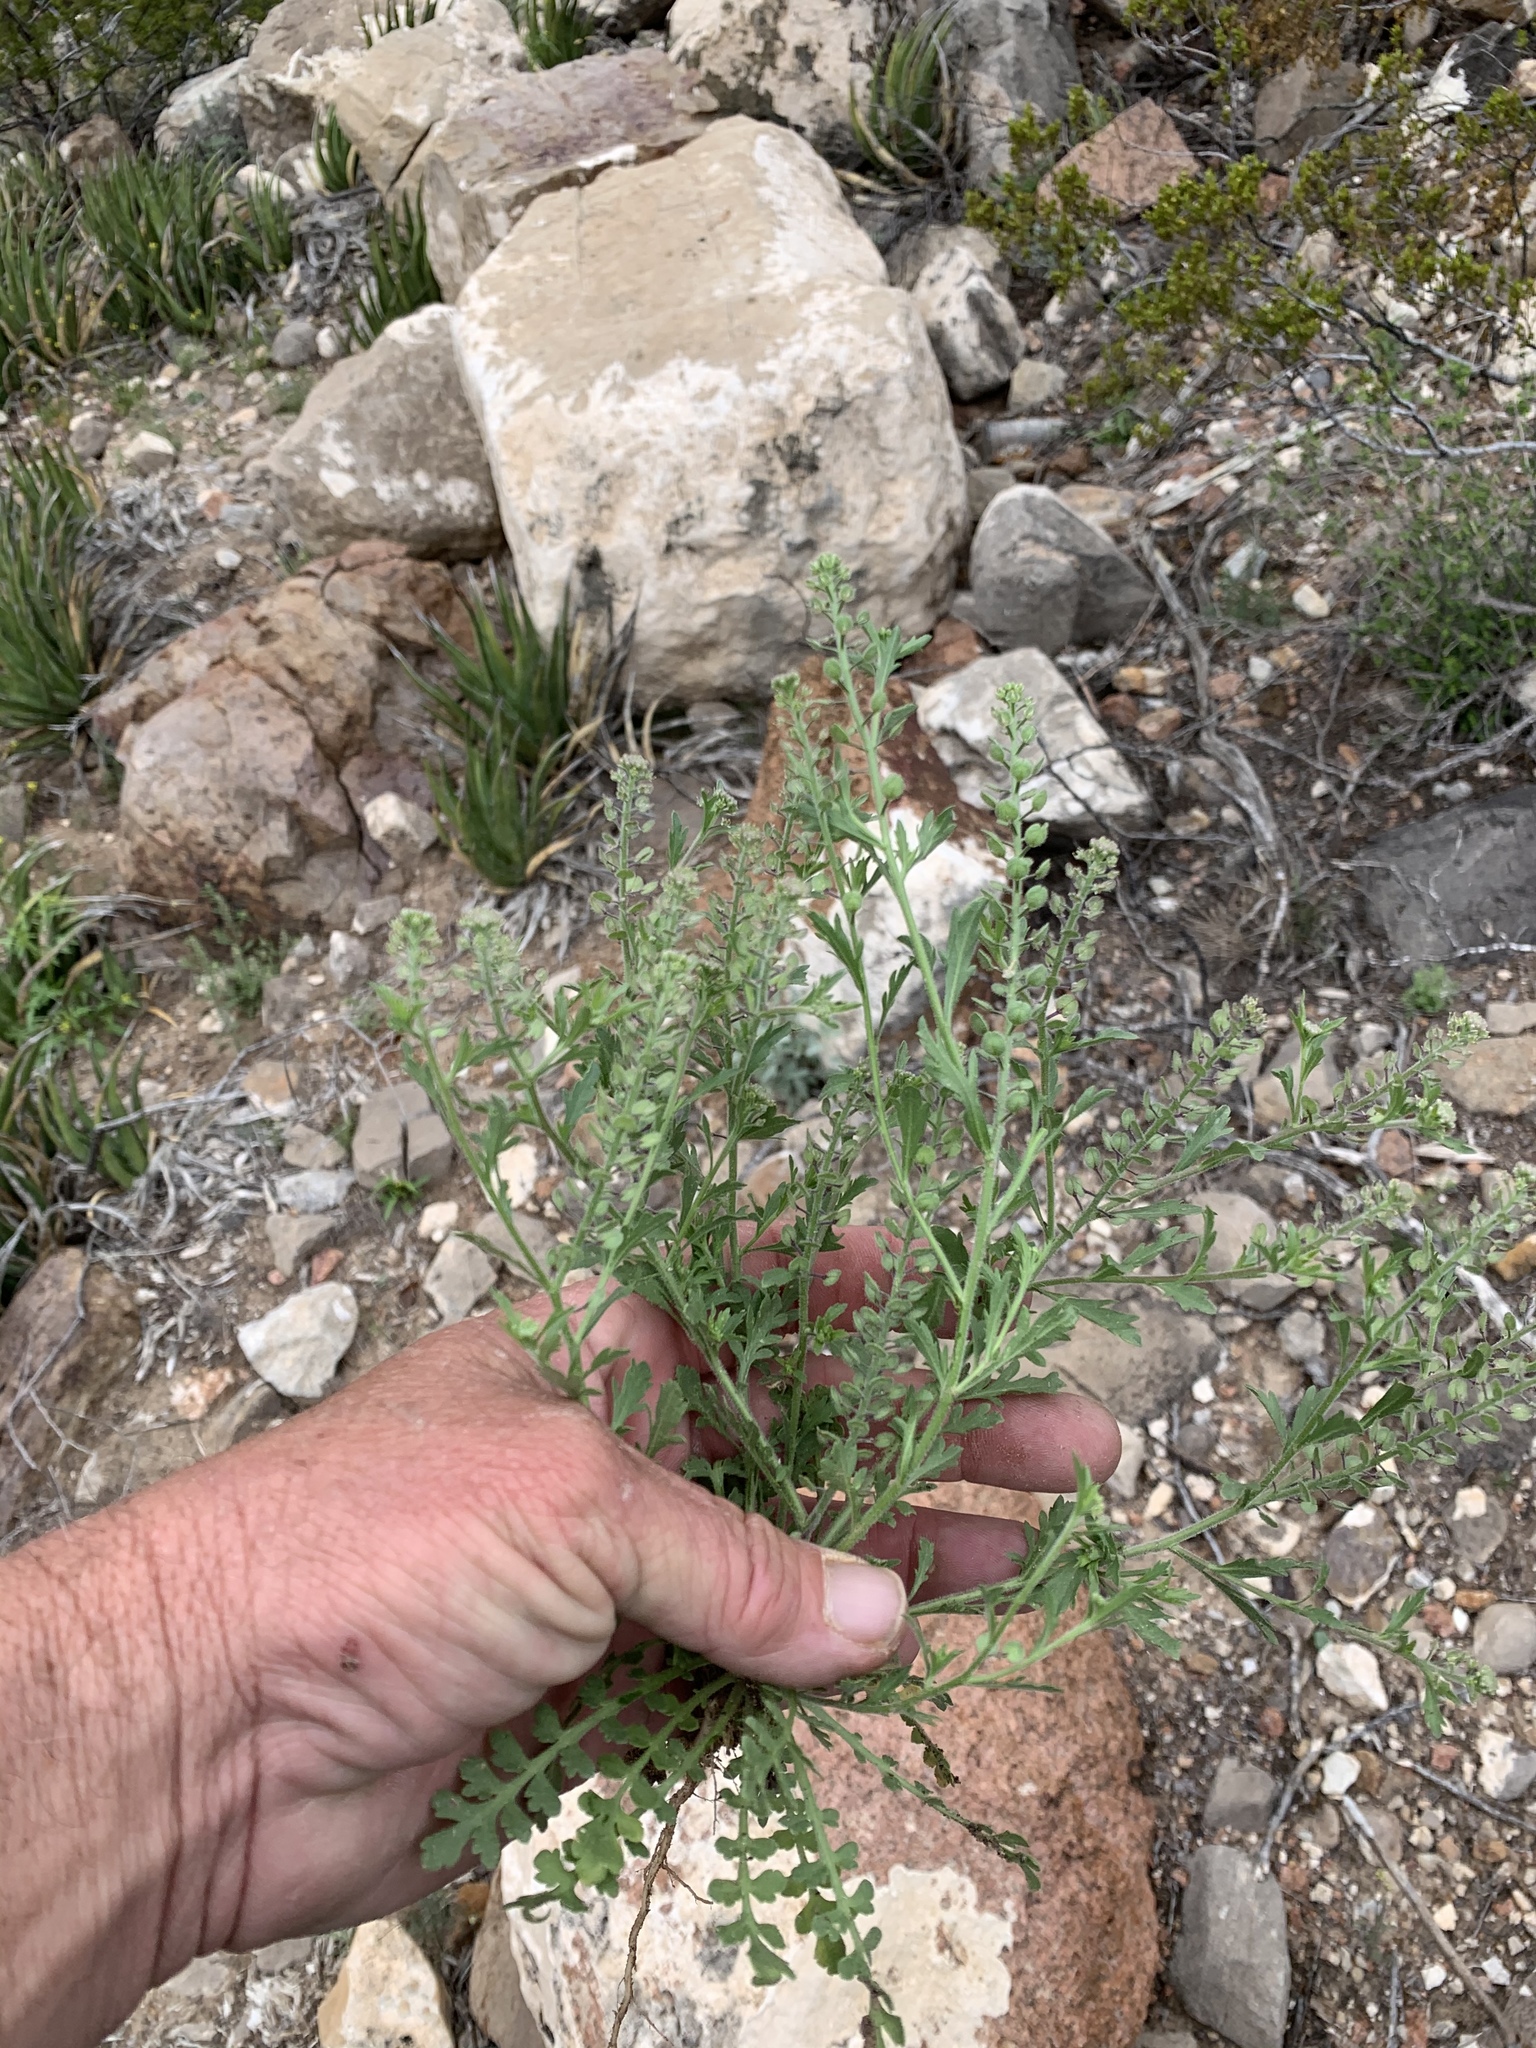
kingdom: Plantae
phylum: Tracheophyta
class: Magnoliopsida
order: Brassicales
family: Brassicaceae
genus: Lepidium
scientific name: Lepidium lasiocarpum
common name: Hairy-pod pepperwort
